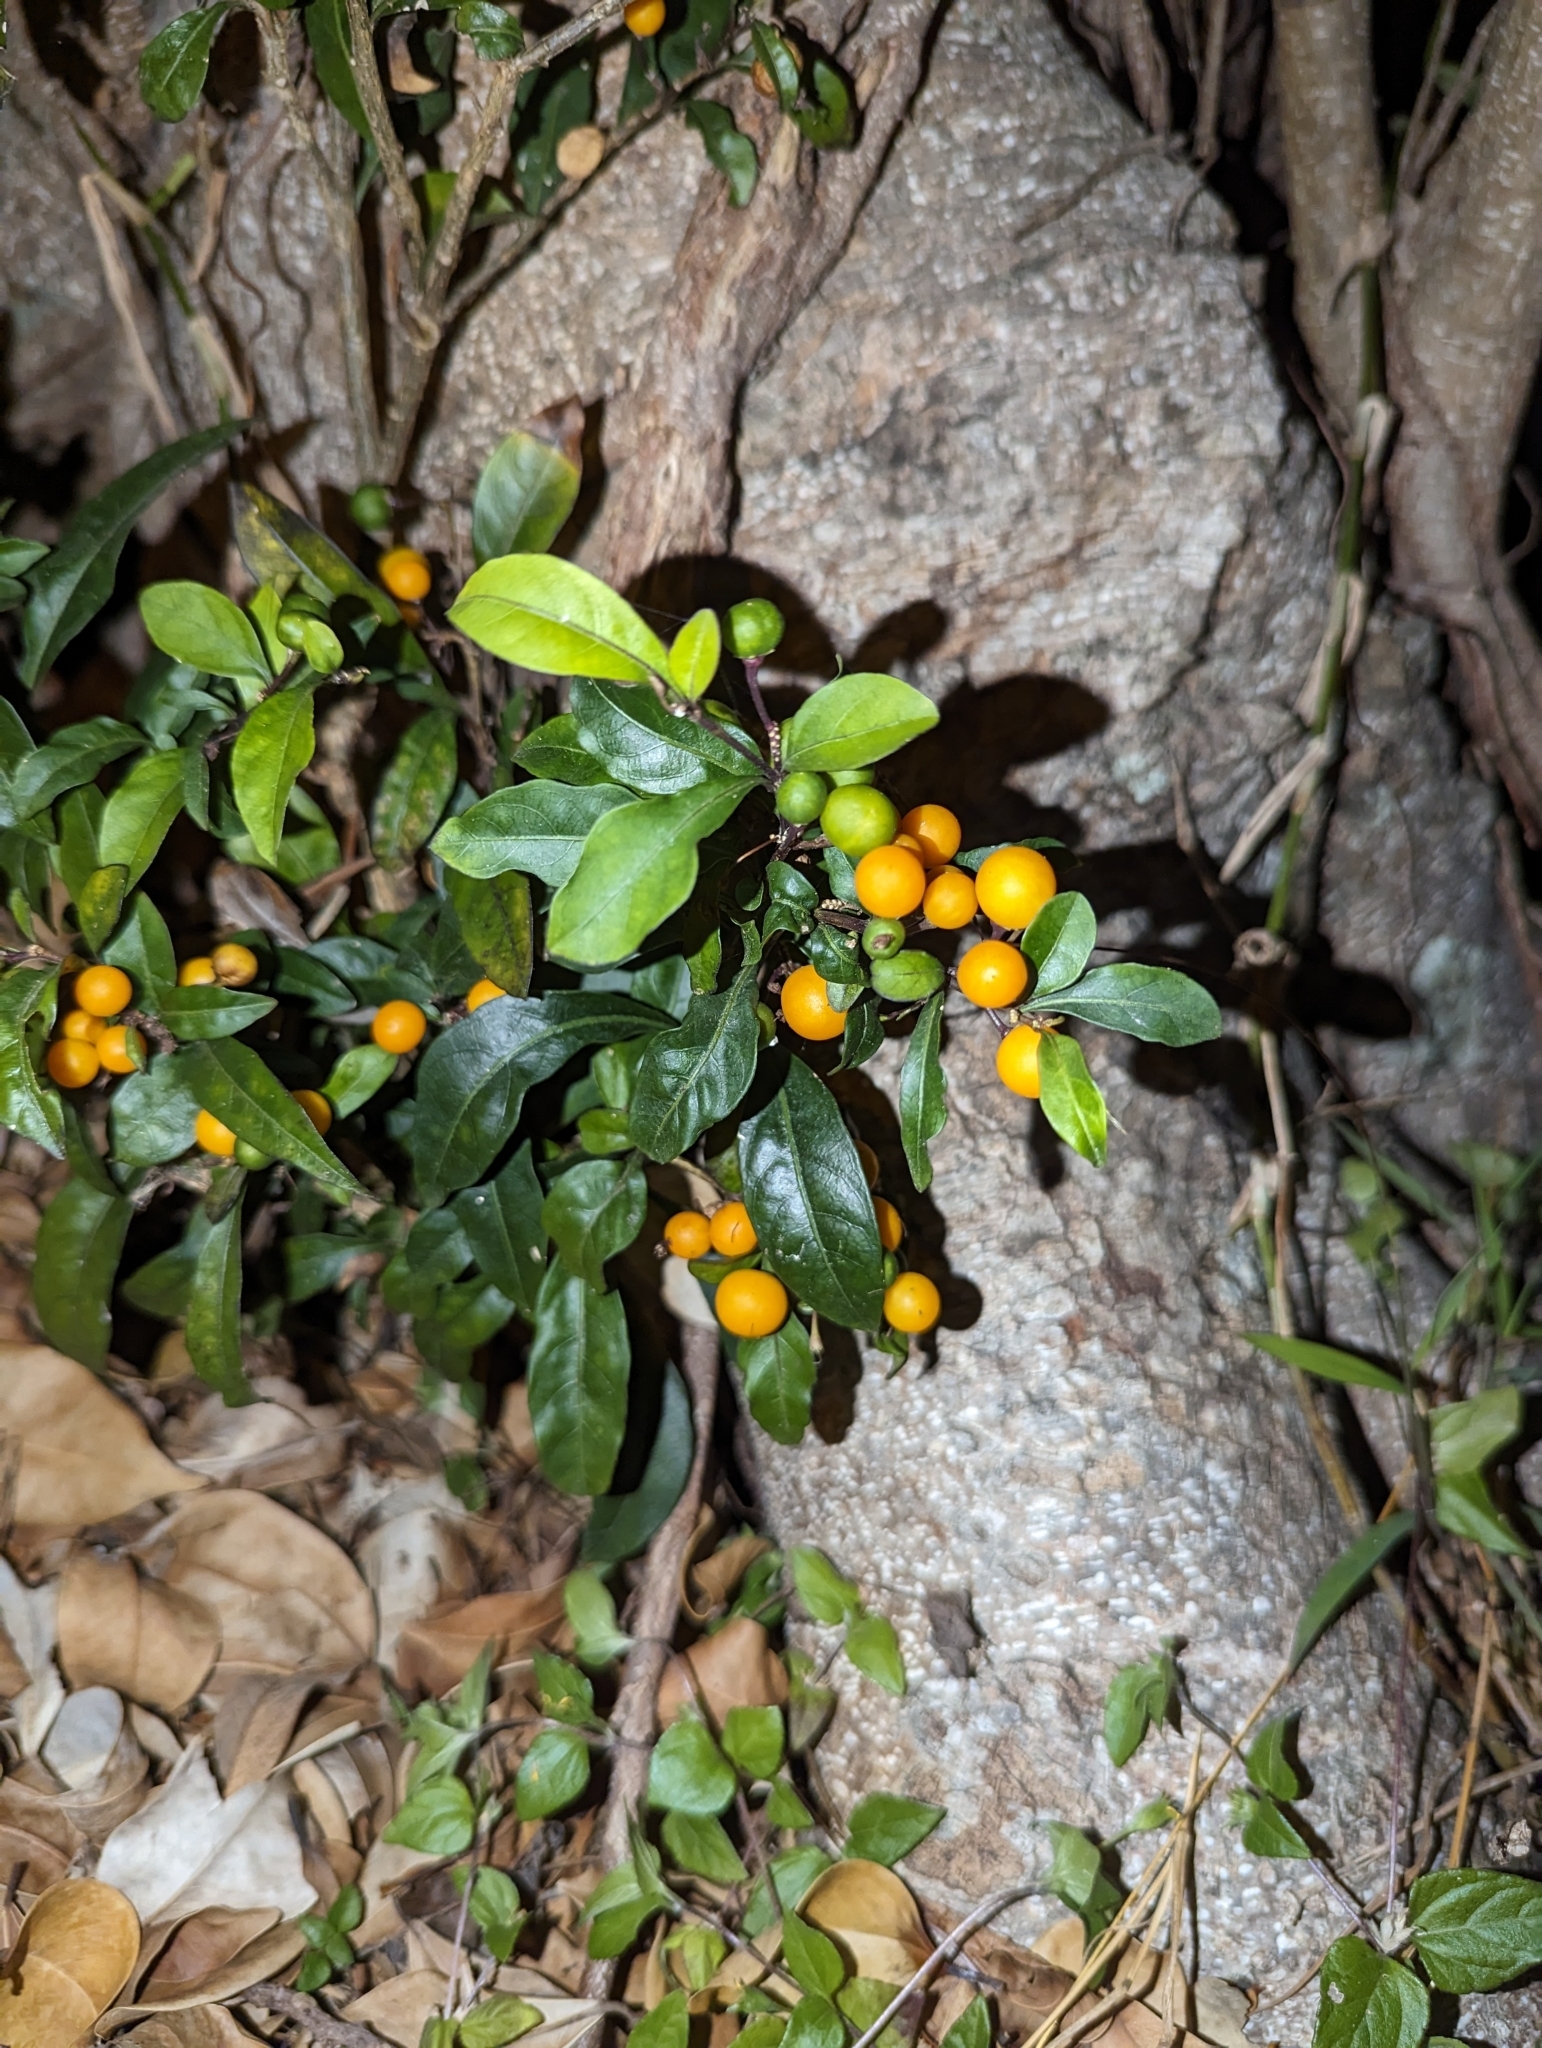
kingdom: Plantae
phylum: Tracheophyta
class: Magnoliopsida
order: Solanales
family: Solanaceae
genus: Solanum
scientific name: Solanum diphyllum
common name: Twoleaf nightshade
